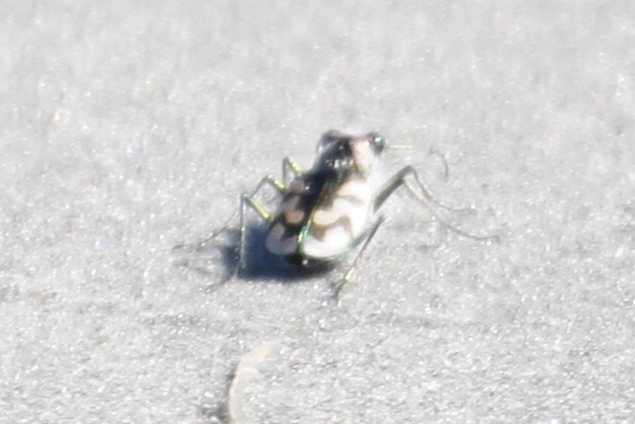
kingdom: Animalia
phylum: Arthropoda
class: Insecta
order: Coleoptera
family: Carabidae
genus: Cicindela
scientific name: Cicindela latesignata
